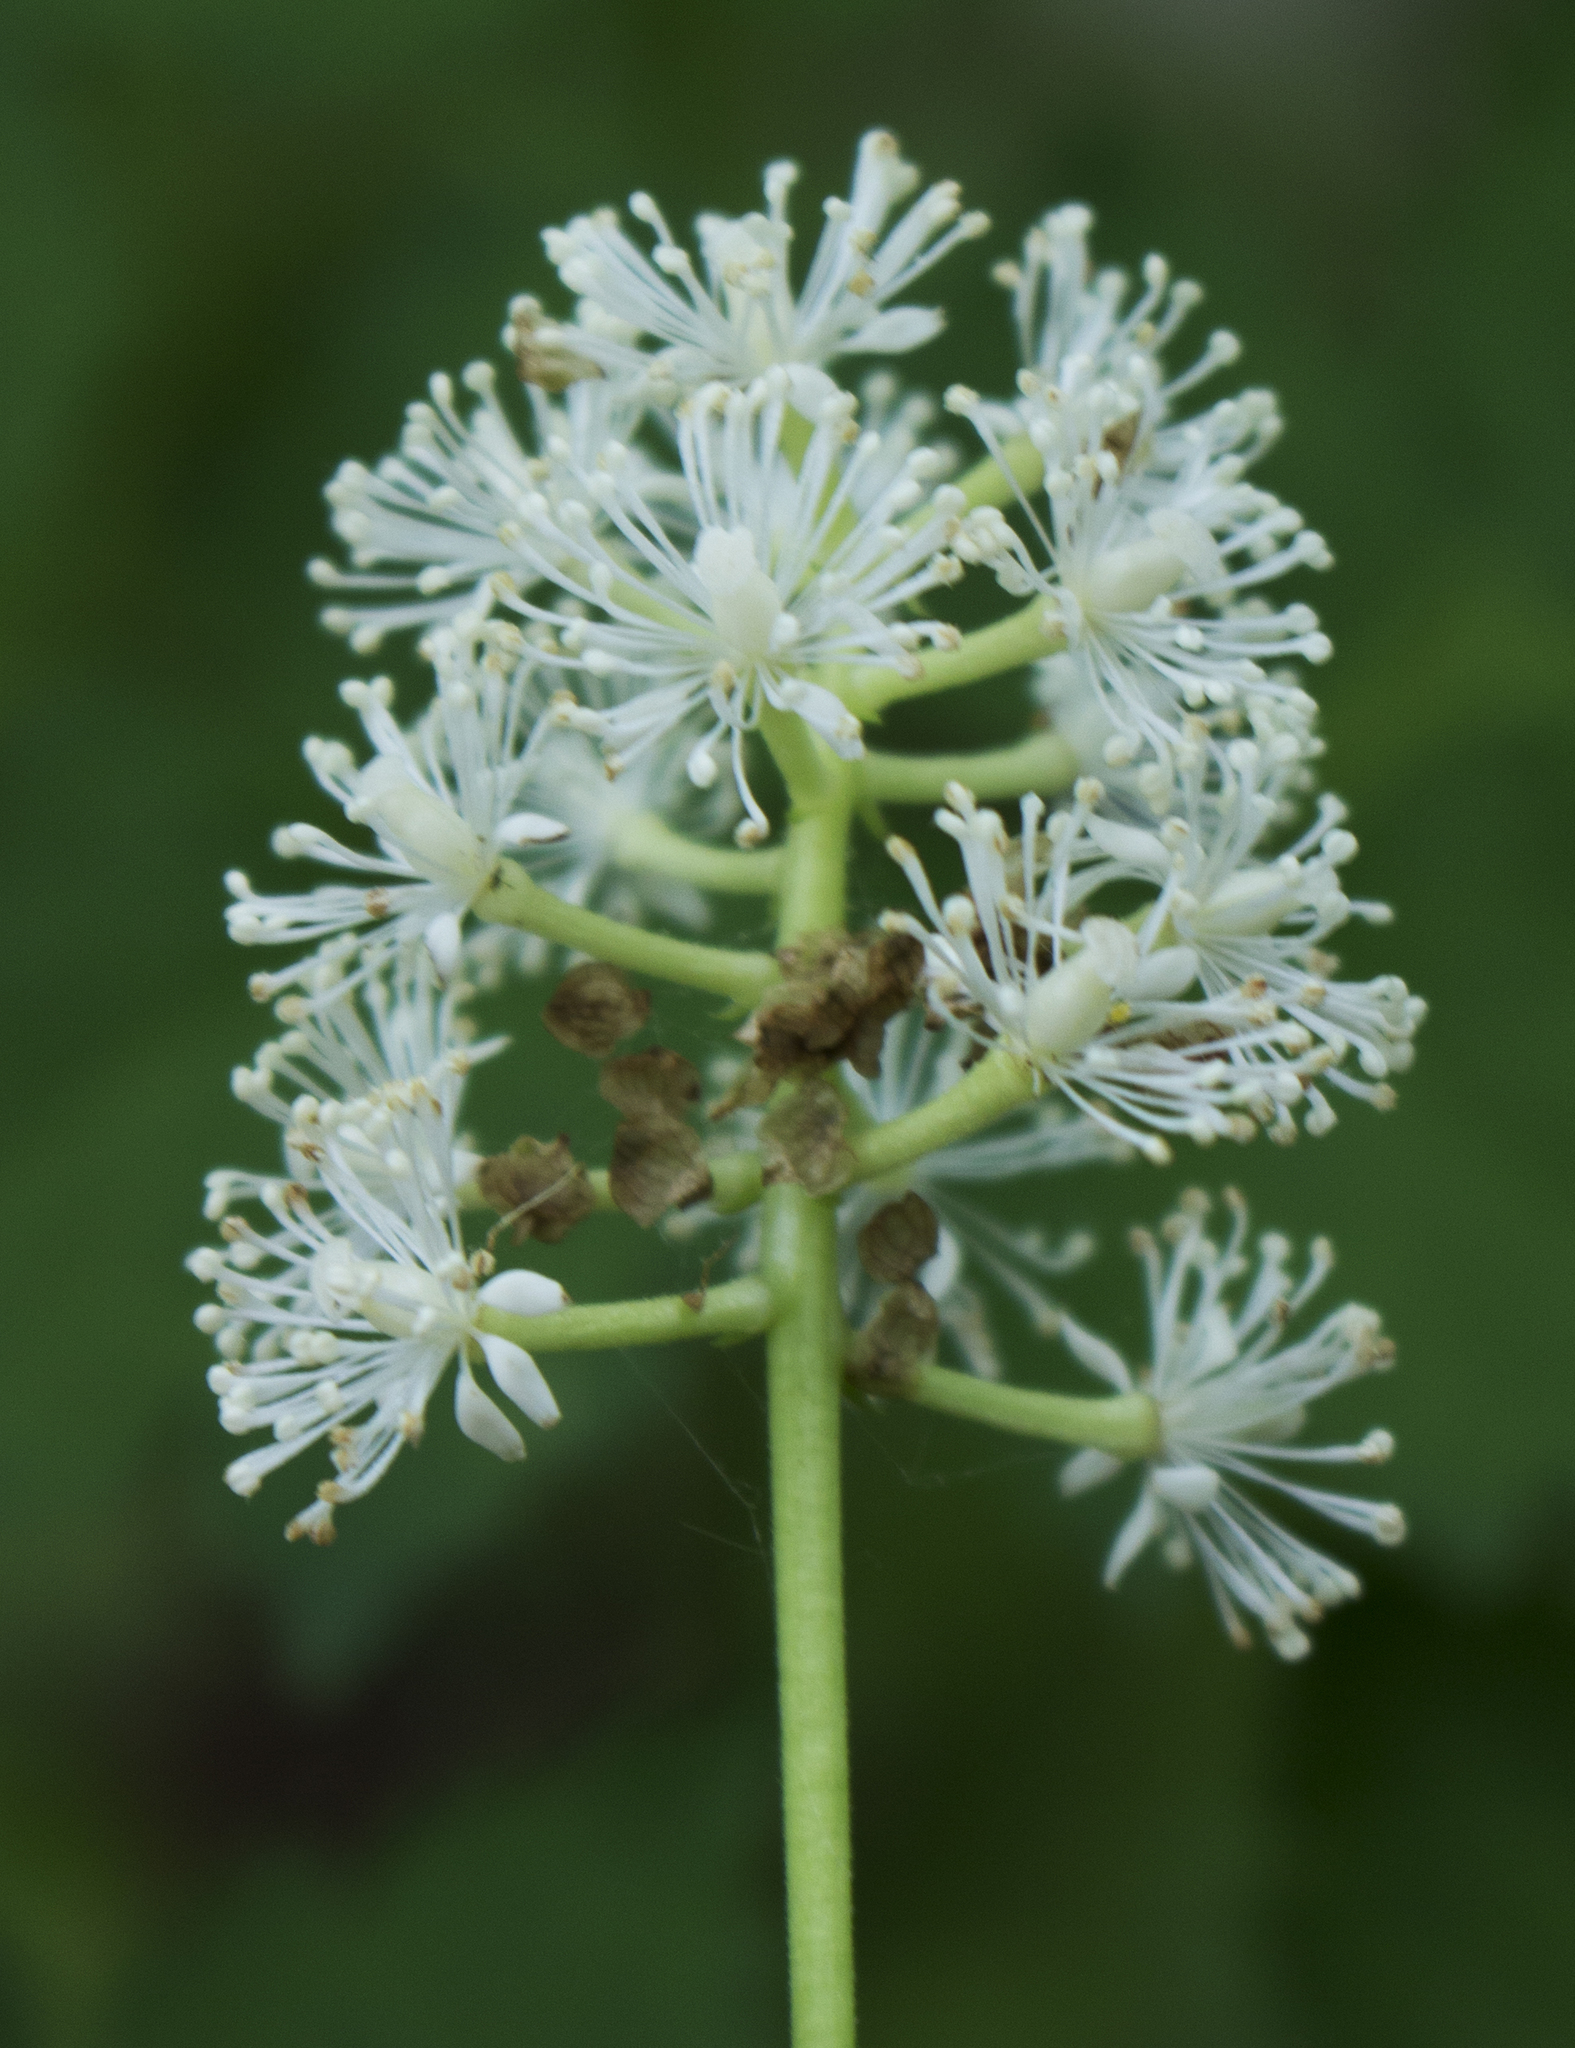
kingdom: Plantae
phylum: Tracheophyta
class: Magnoliopsida
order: Ranunculales
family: Ranunculaceae
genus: Actaea
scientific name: Actaea pachypoda
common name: Doll's-eyes
